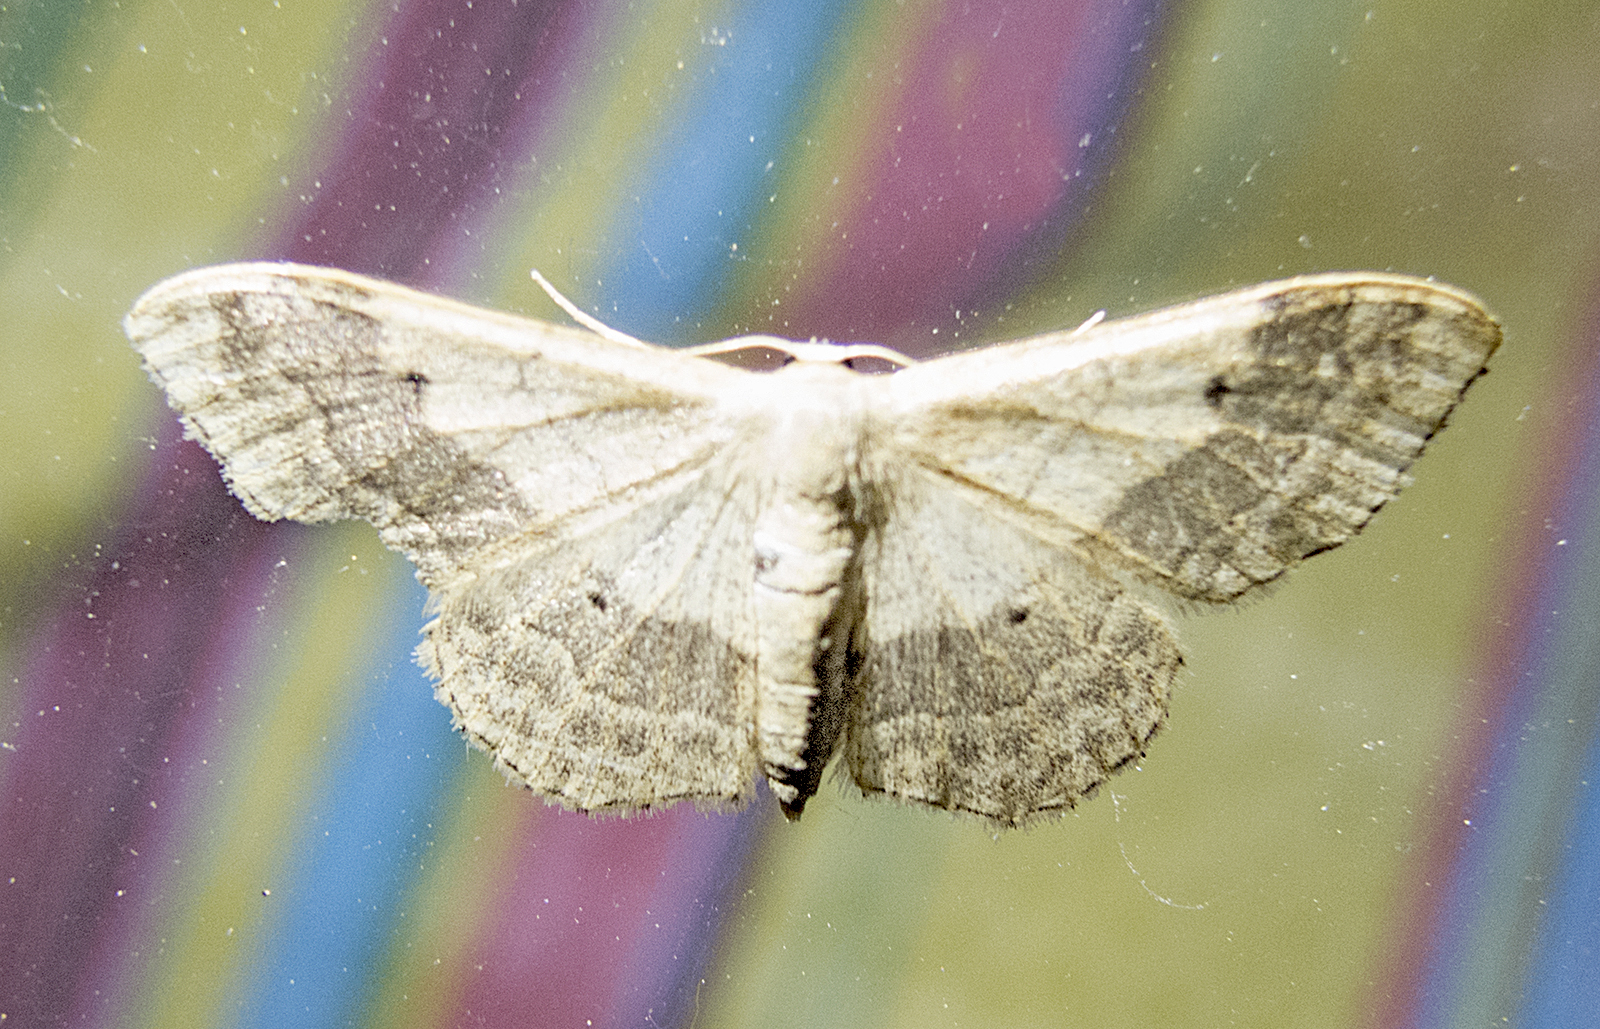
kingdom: Animalia
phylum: Arthropoda
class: Insecta
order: Lepidoptera
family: Geometridae
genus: Idaea
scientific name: Idaea aversata
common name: Riband wave
